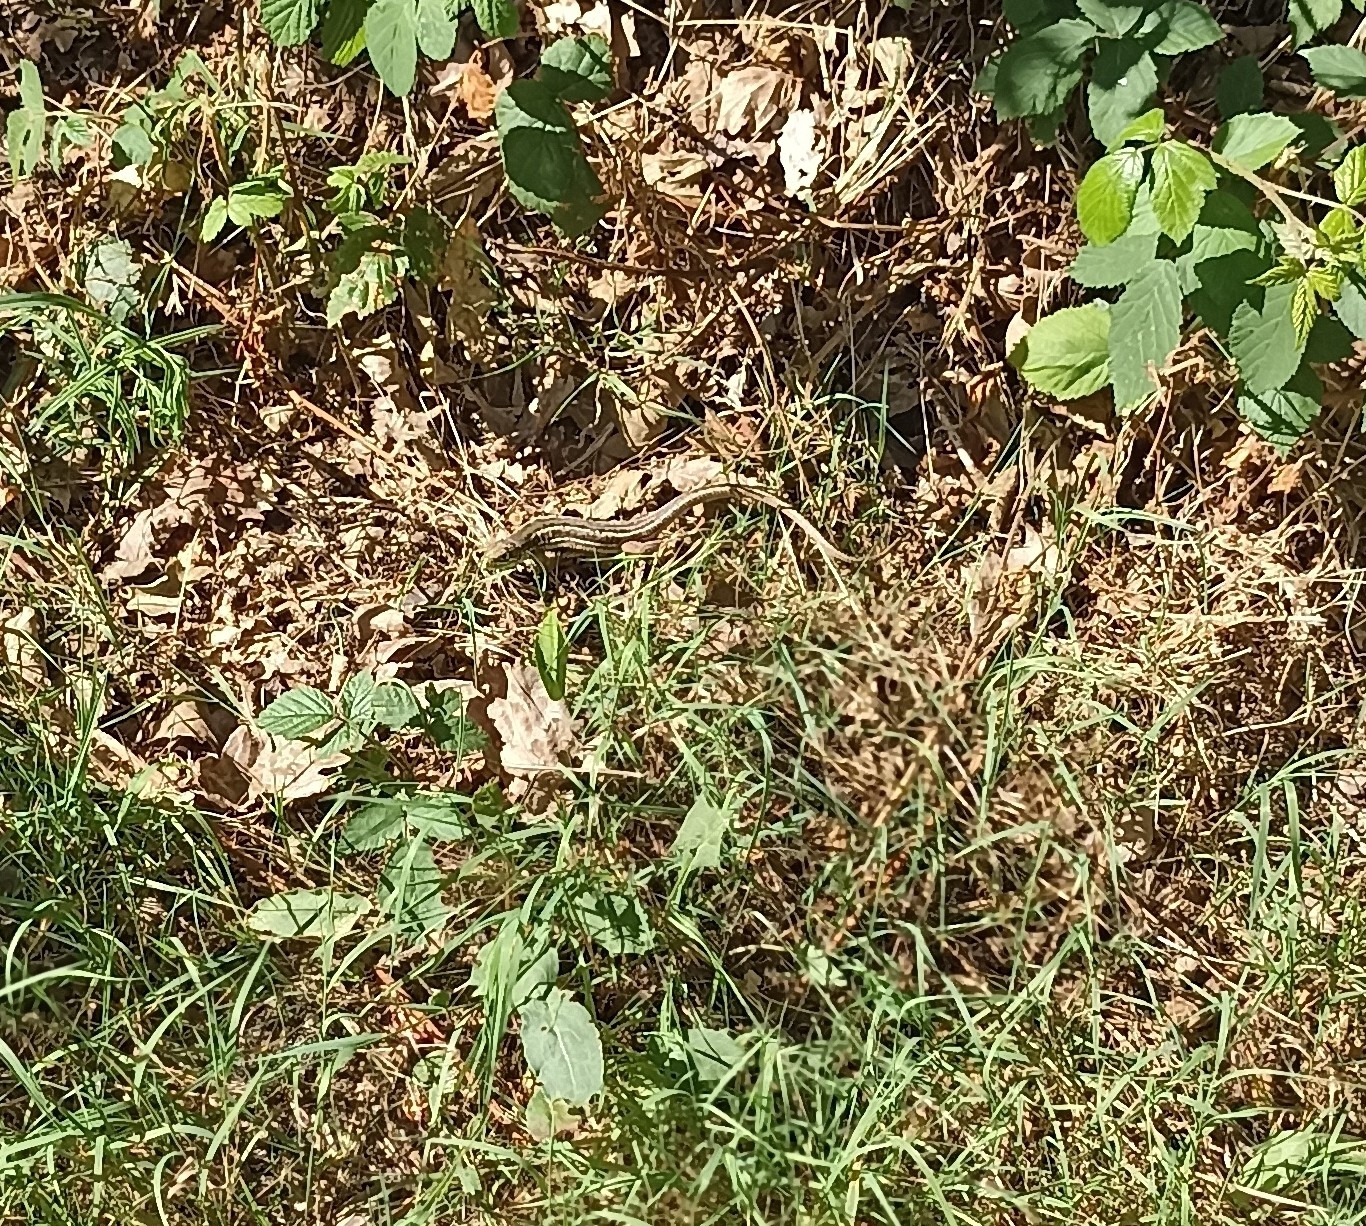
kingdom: Animalia
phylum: Chordata
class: Squamata
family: Lacertidae
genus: Lacerta
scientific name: Lacerta bilineata
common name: Western green lizard
